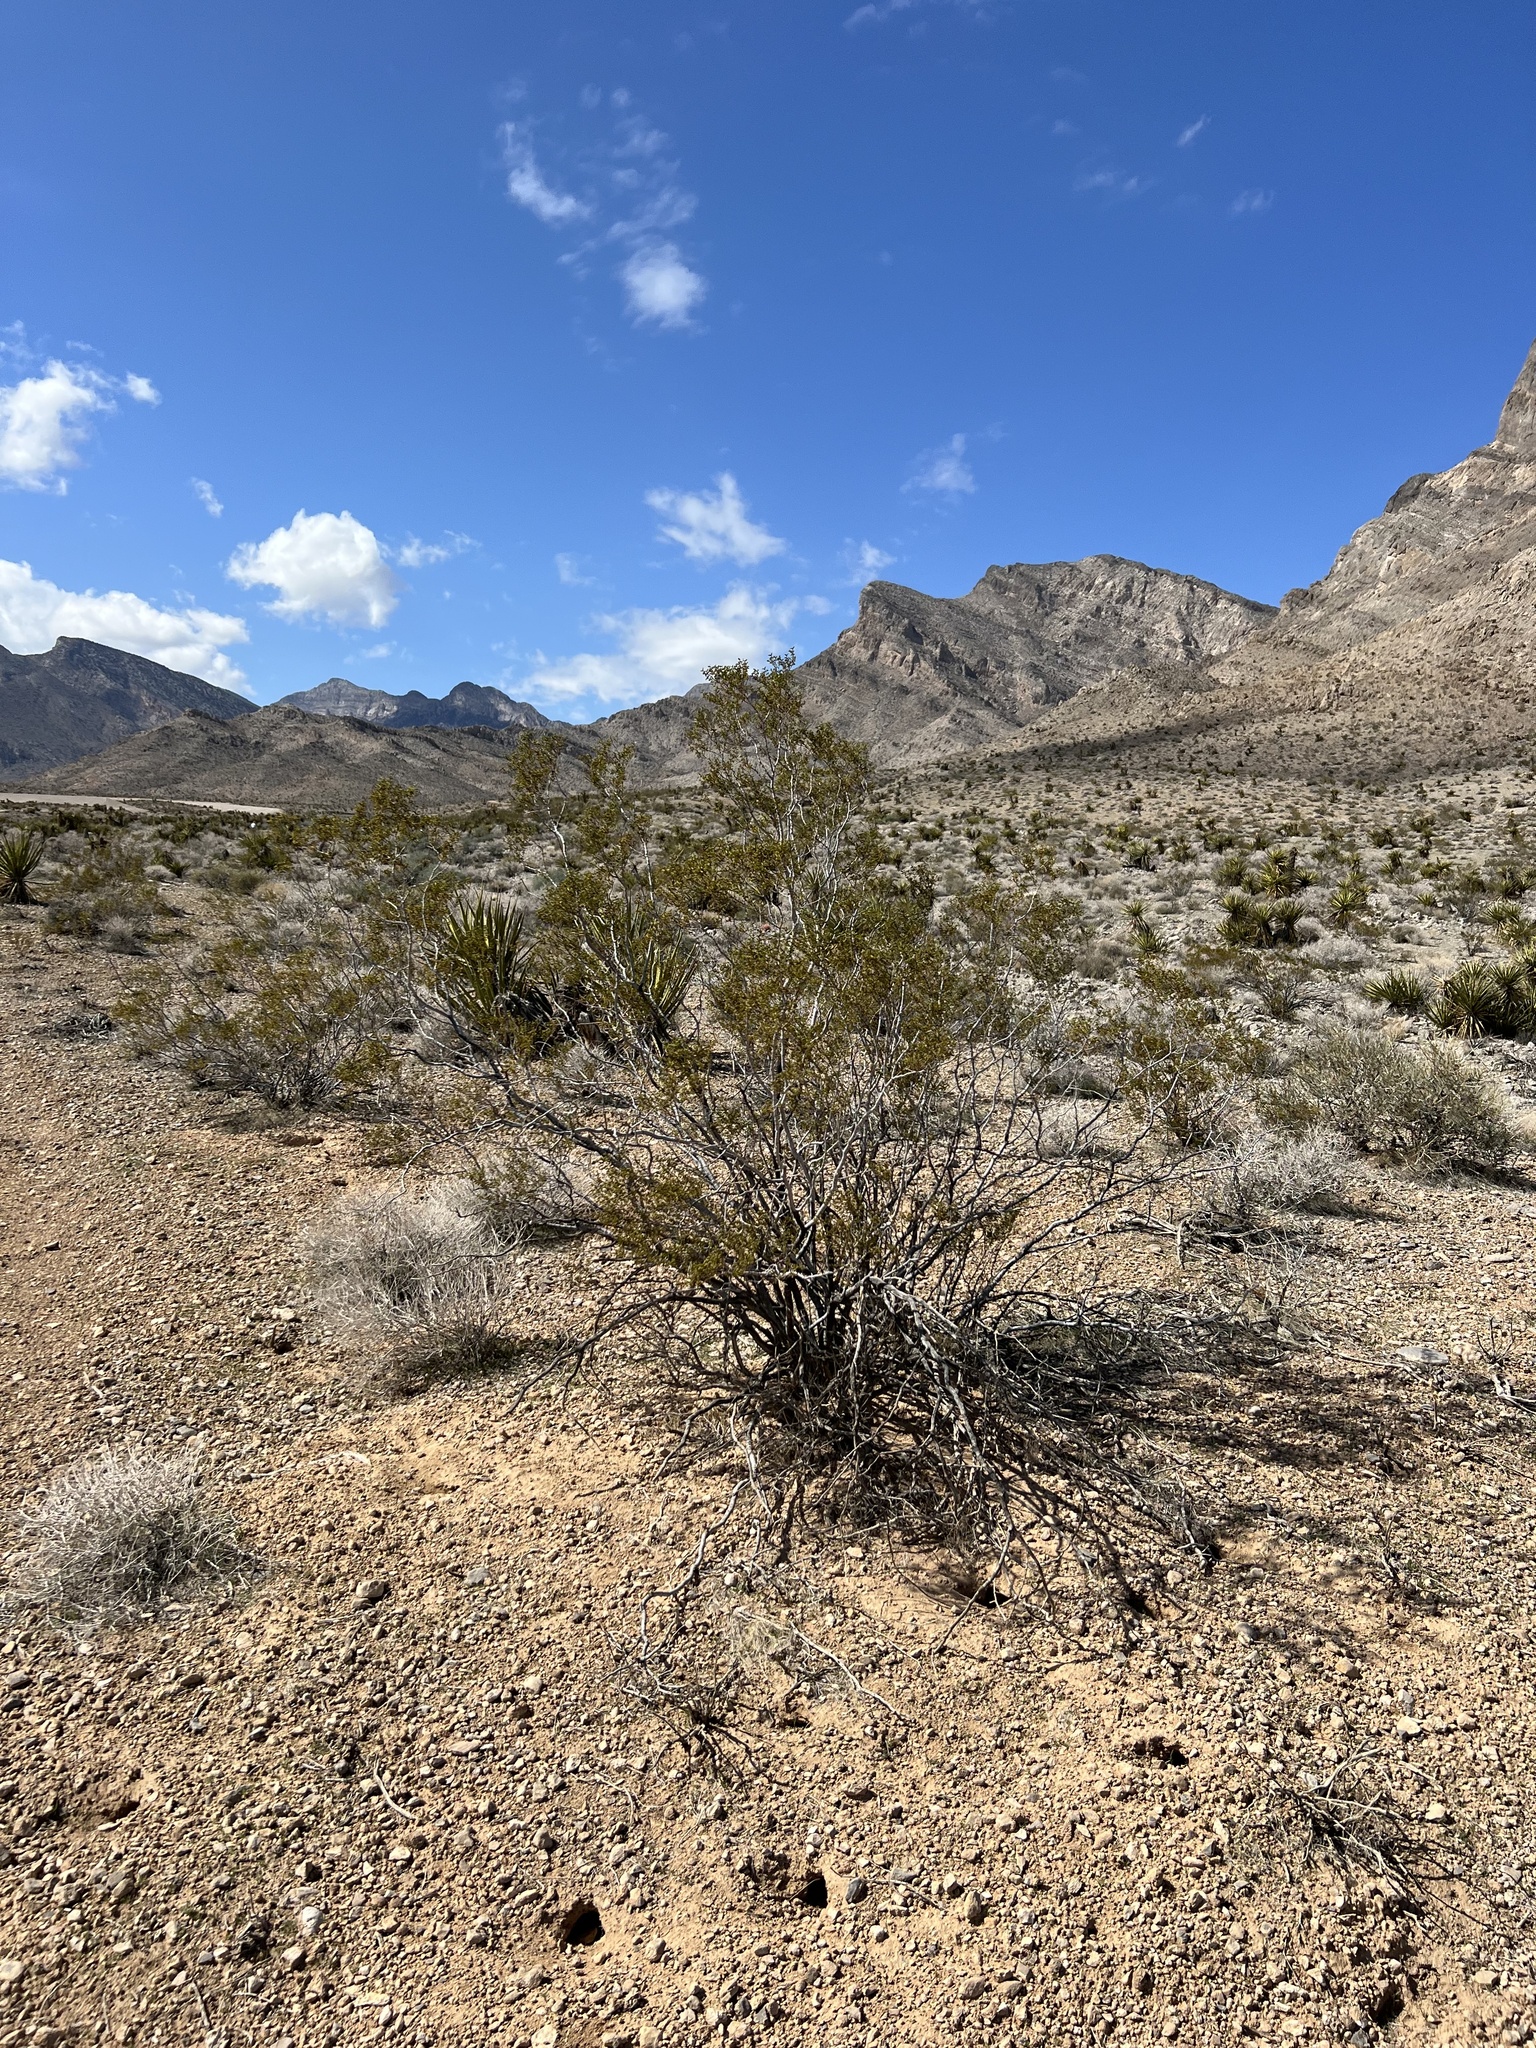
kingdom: Plantae
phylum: Tracheophyta
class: Magnoliopsida
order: Zygophyllales
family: Zygophyllaceae
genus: Larrea
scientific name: Larrea tridentata
